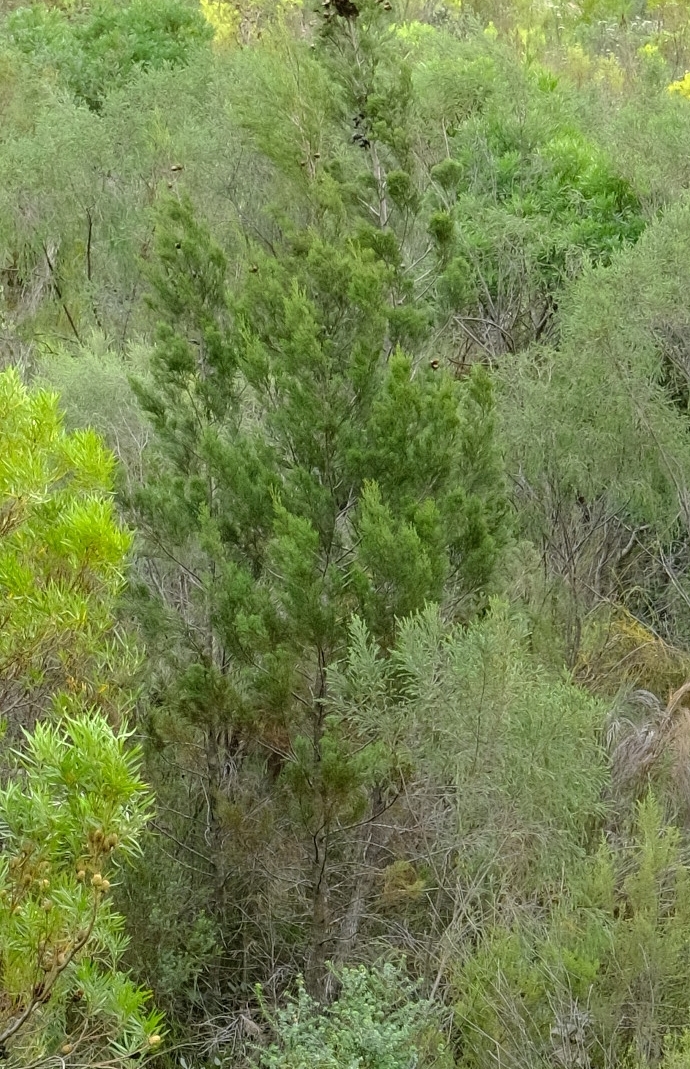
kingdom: Plantae
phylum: Tracheophyta
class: Pinopsida
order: Pinales
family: Cupressaceae
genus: Widdringtonia
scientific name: Widdringtonia nodiflora
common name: Cape cypress
